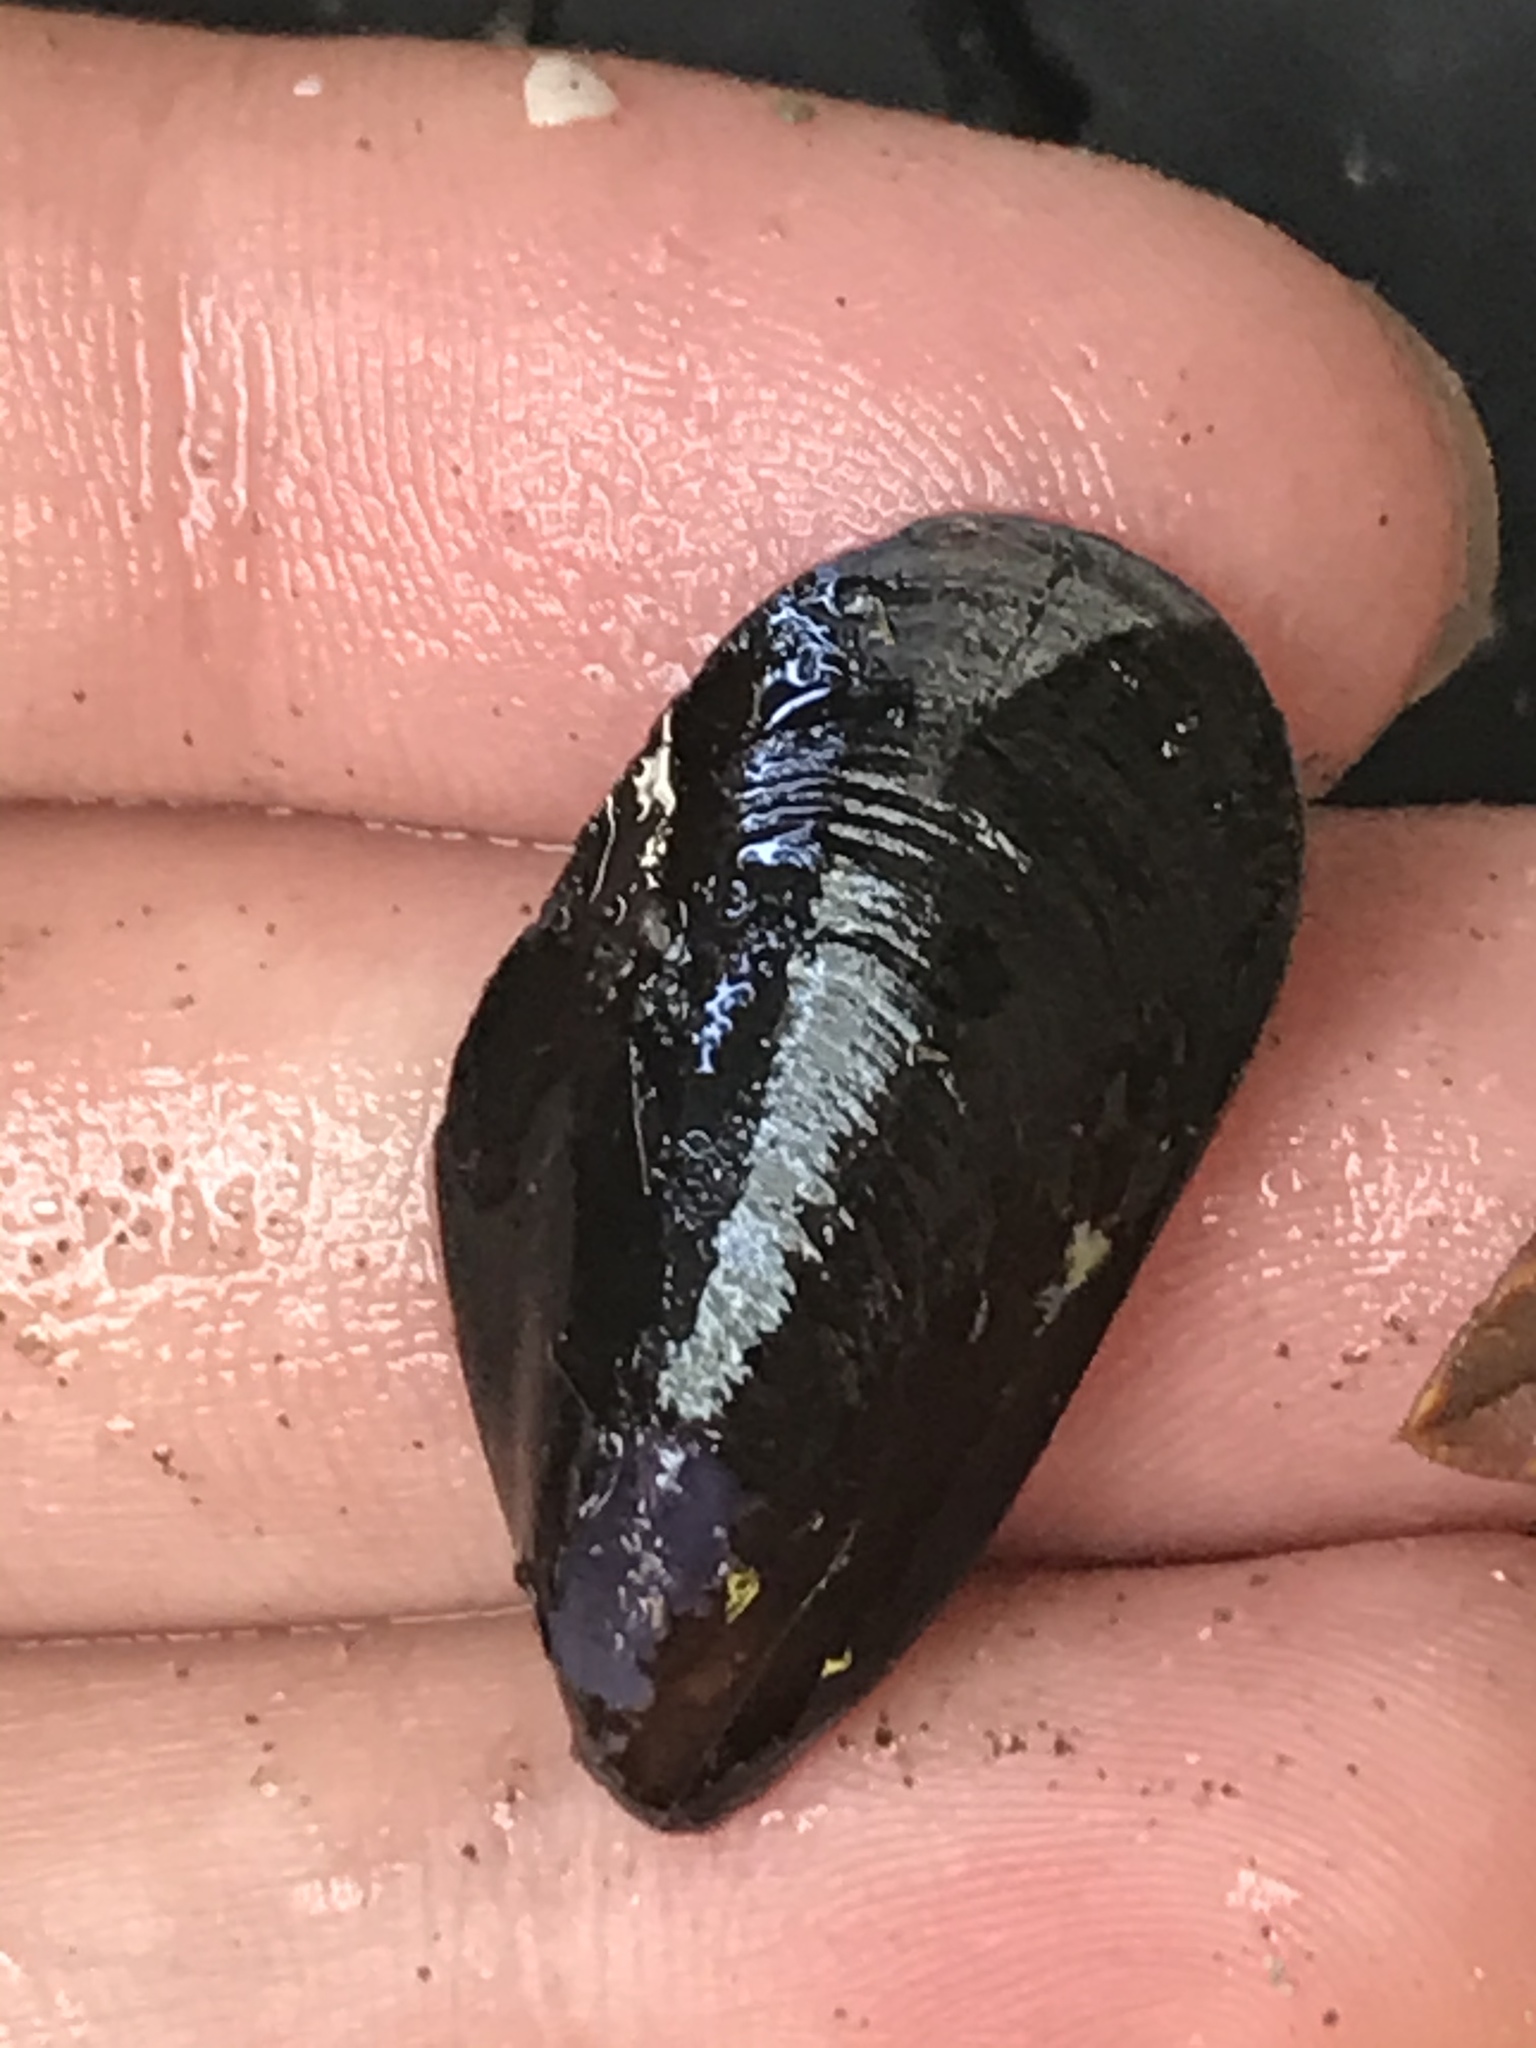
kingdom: Animalia
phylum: Mollusca
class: Bivalvia
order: Mytilida
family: Mytilidae
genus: Mytilus
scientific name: Mytilus
